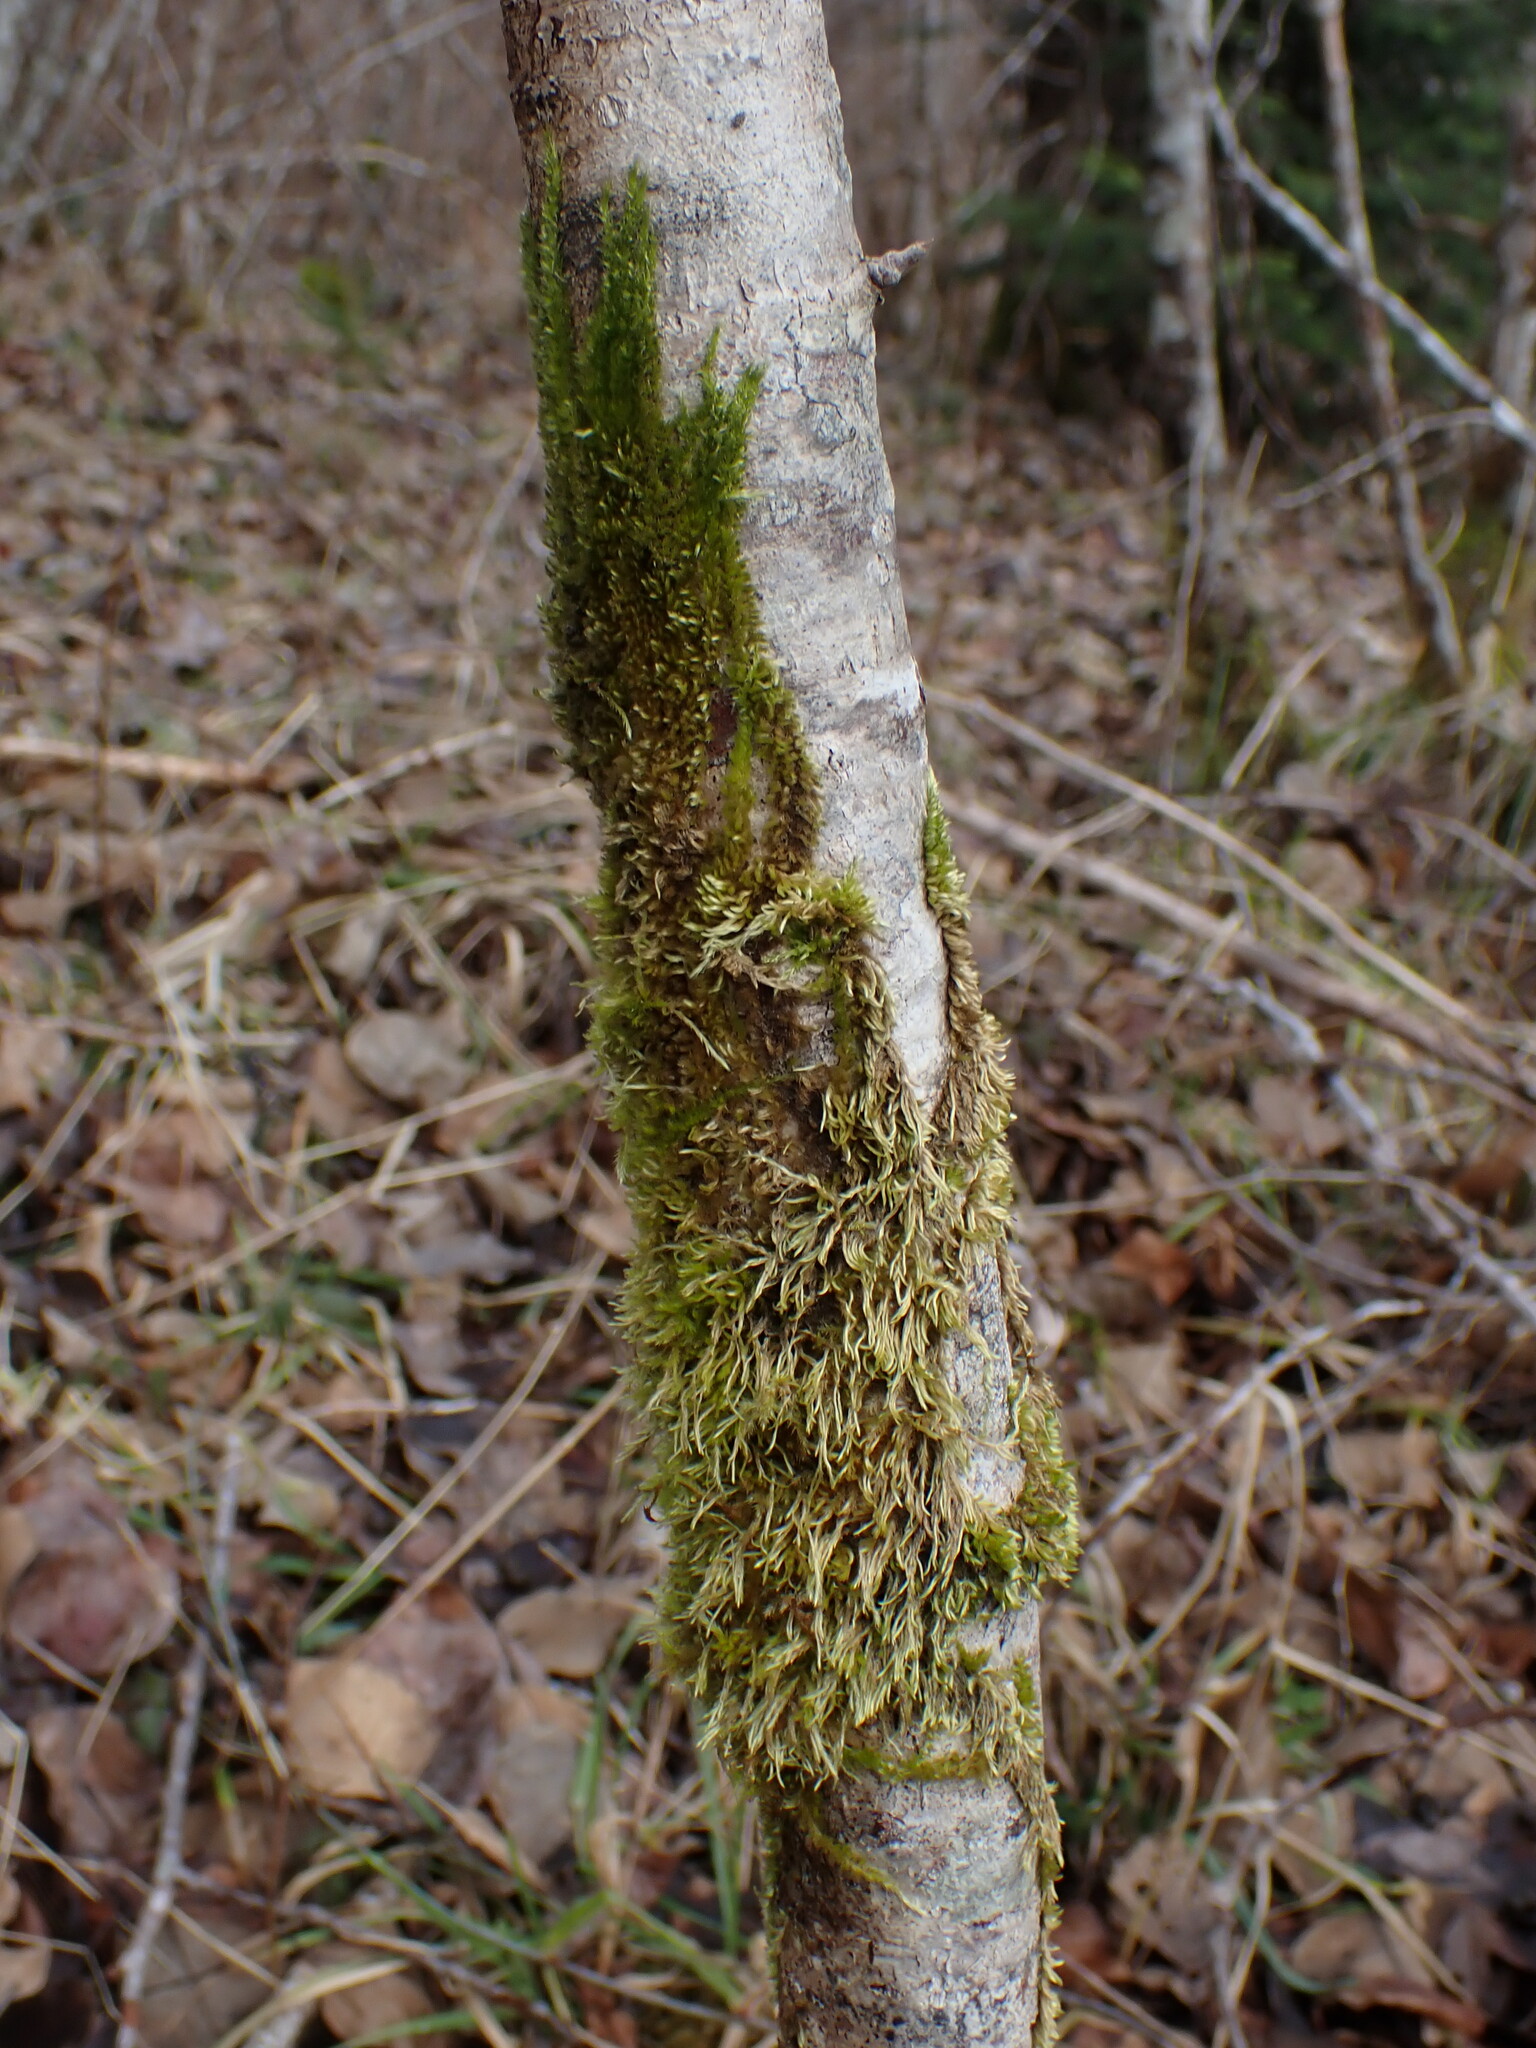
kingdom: Plantae
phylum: Bryophyta
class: Bryopsida
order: Hypnales
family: Brachytheciaceae
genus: Homalothecium
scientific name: Homalothecium nuttallii
